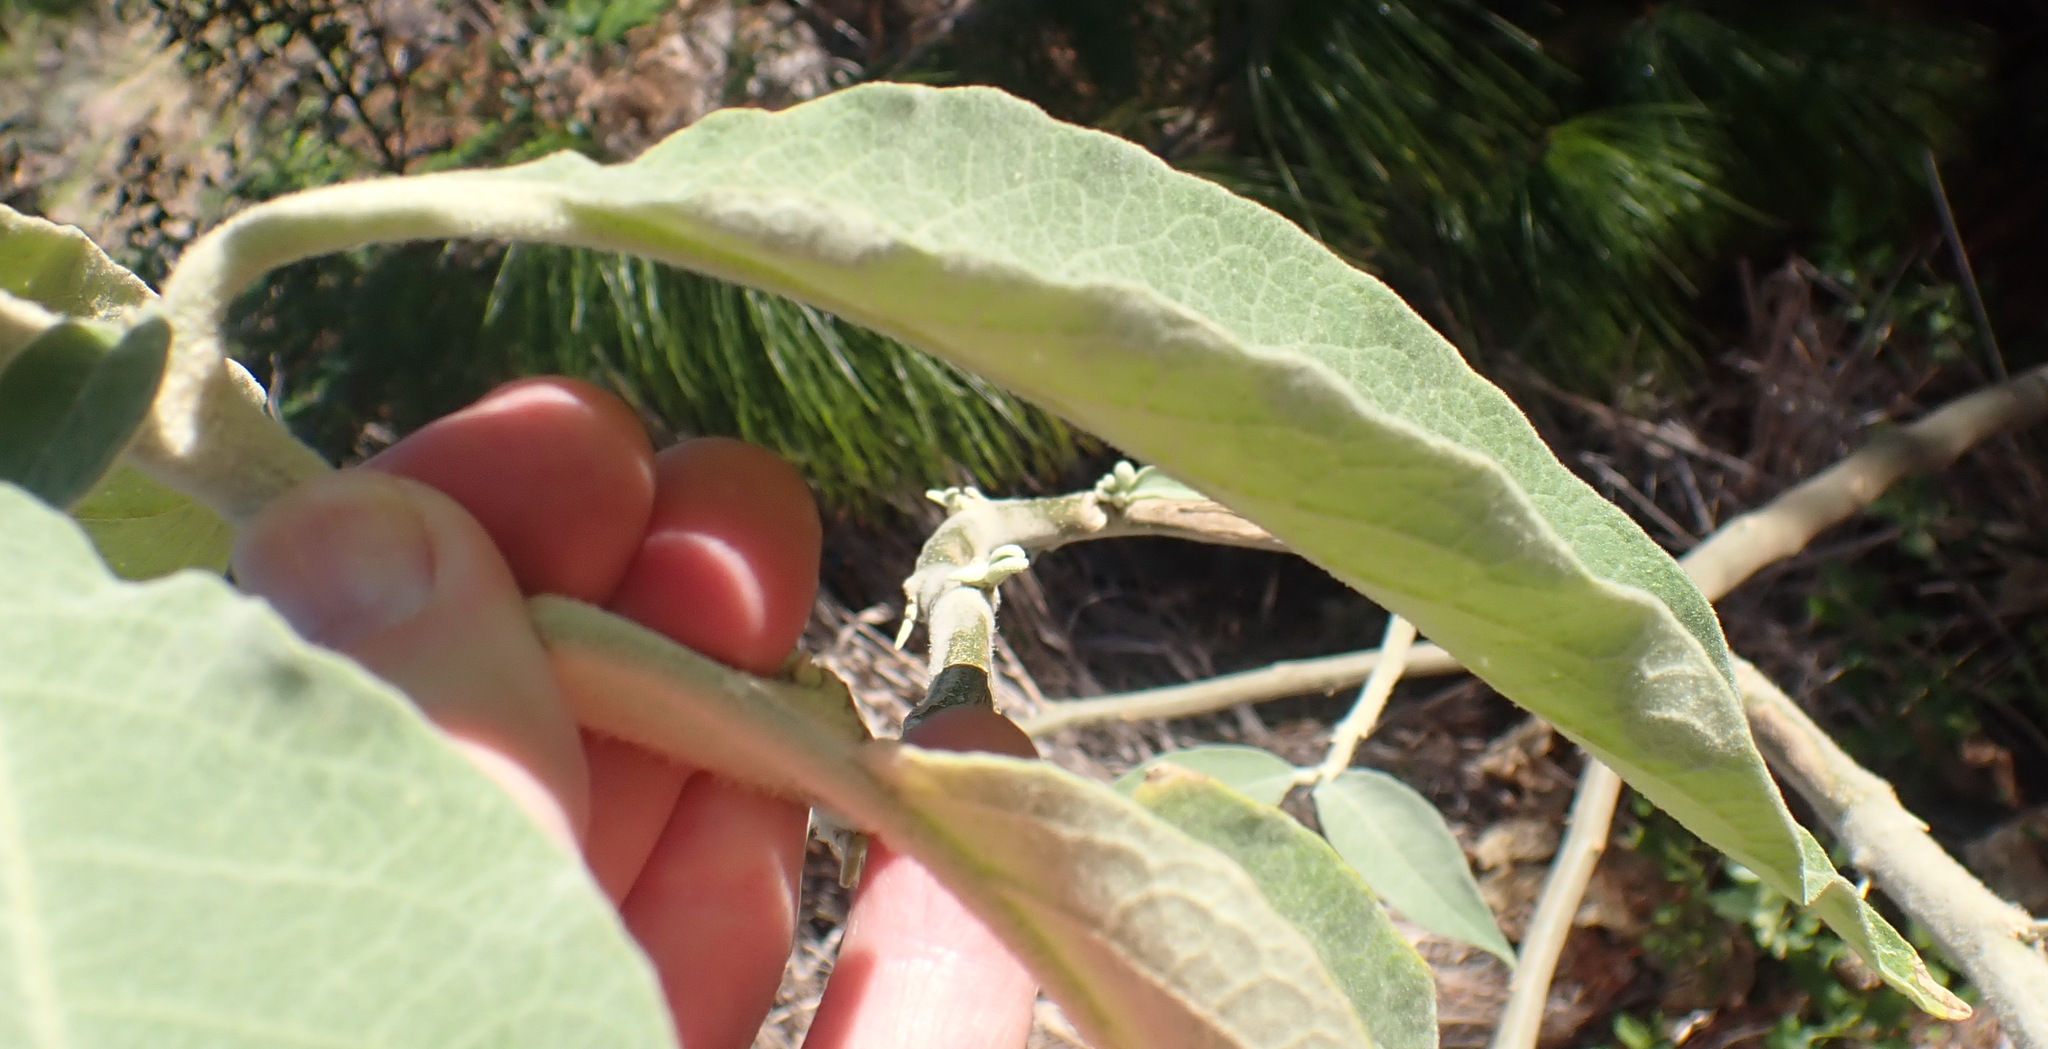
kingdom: Plantae
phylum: Tracheophyta
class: Magnoliopsida
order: Solanales
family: Solanaceae
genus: Solanum
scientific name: Solanum mauritianum
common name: Earleaf nightshade
